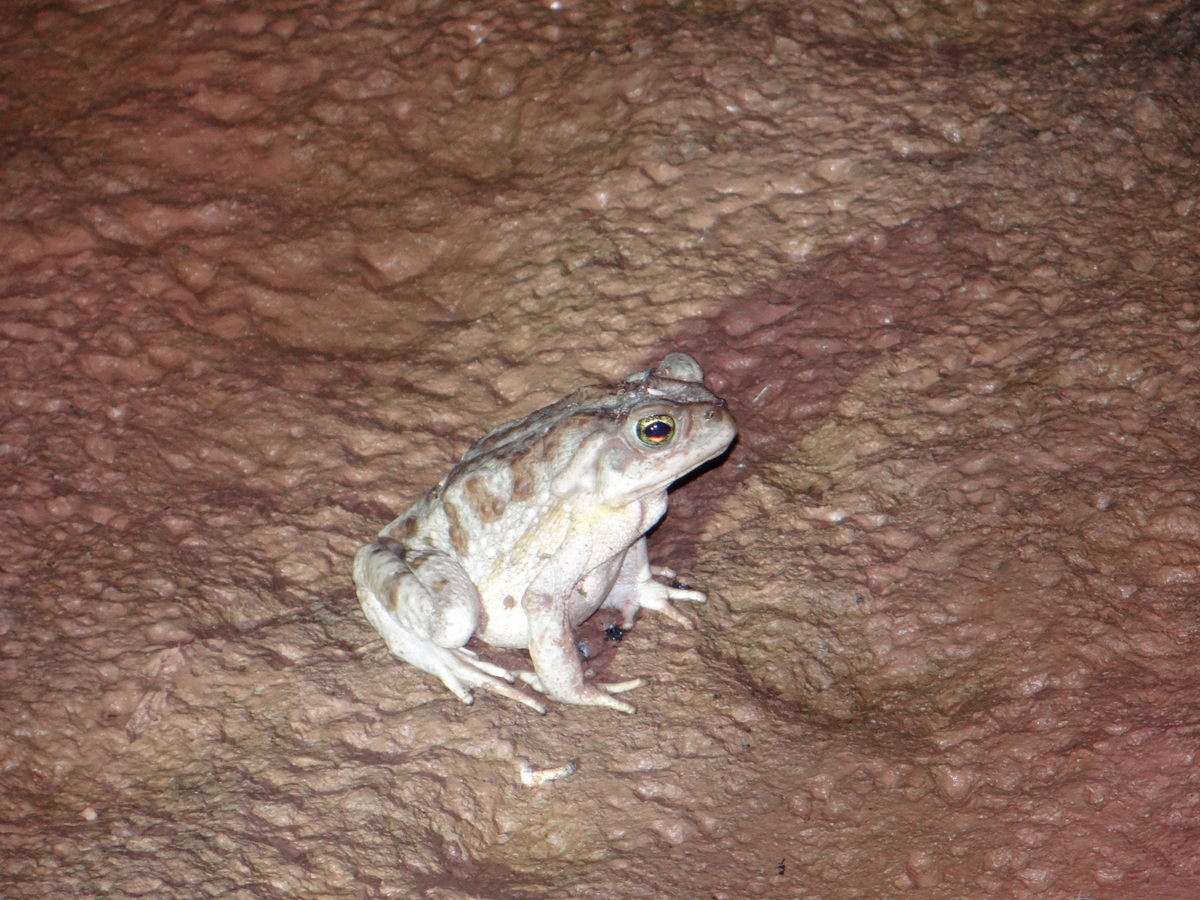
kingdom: Animalia
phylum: Chordata
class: Amphibia
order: Anura
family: Bufonidae
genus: Rhinella
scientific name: Rhinella arenarum
